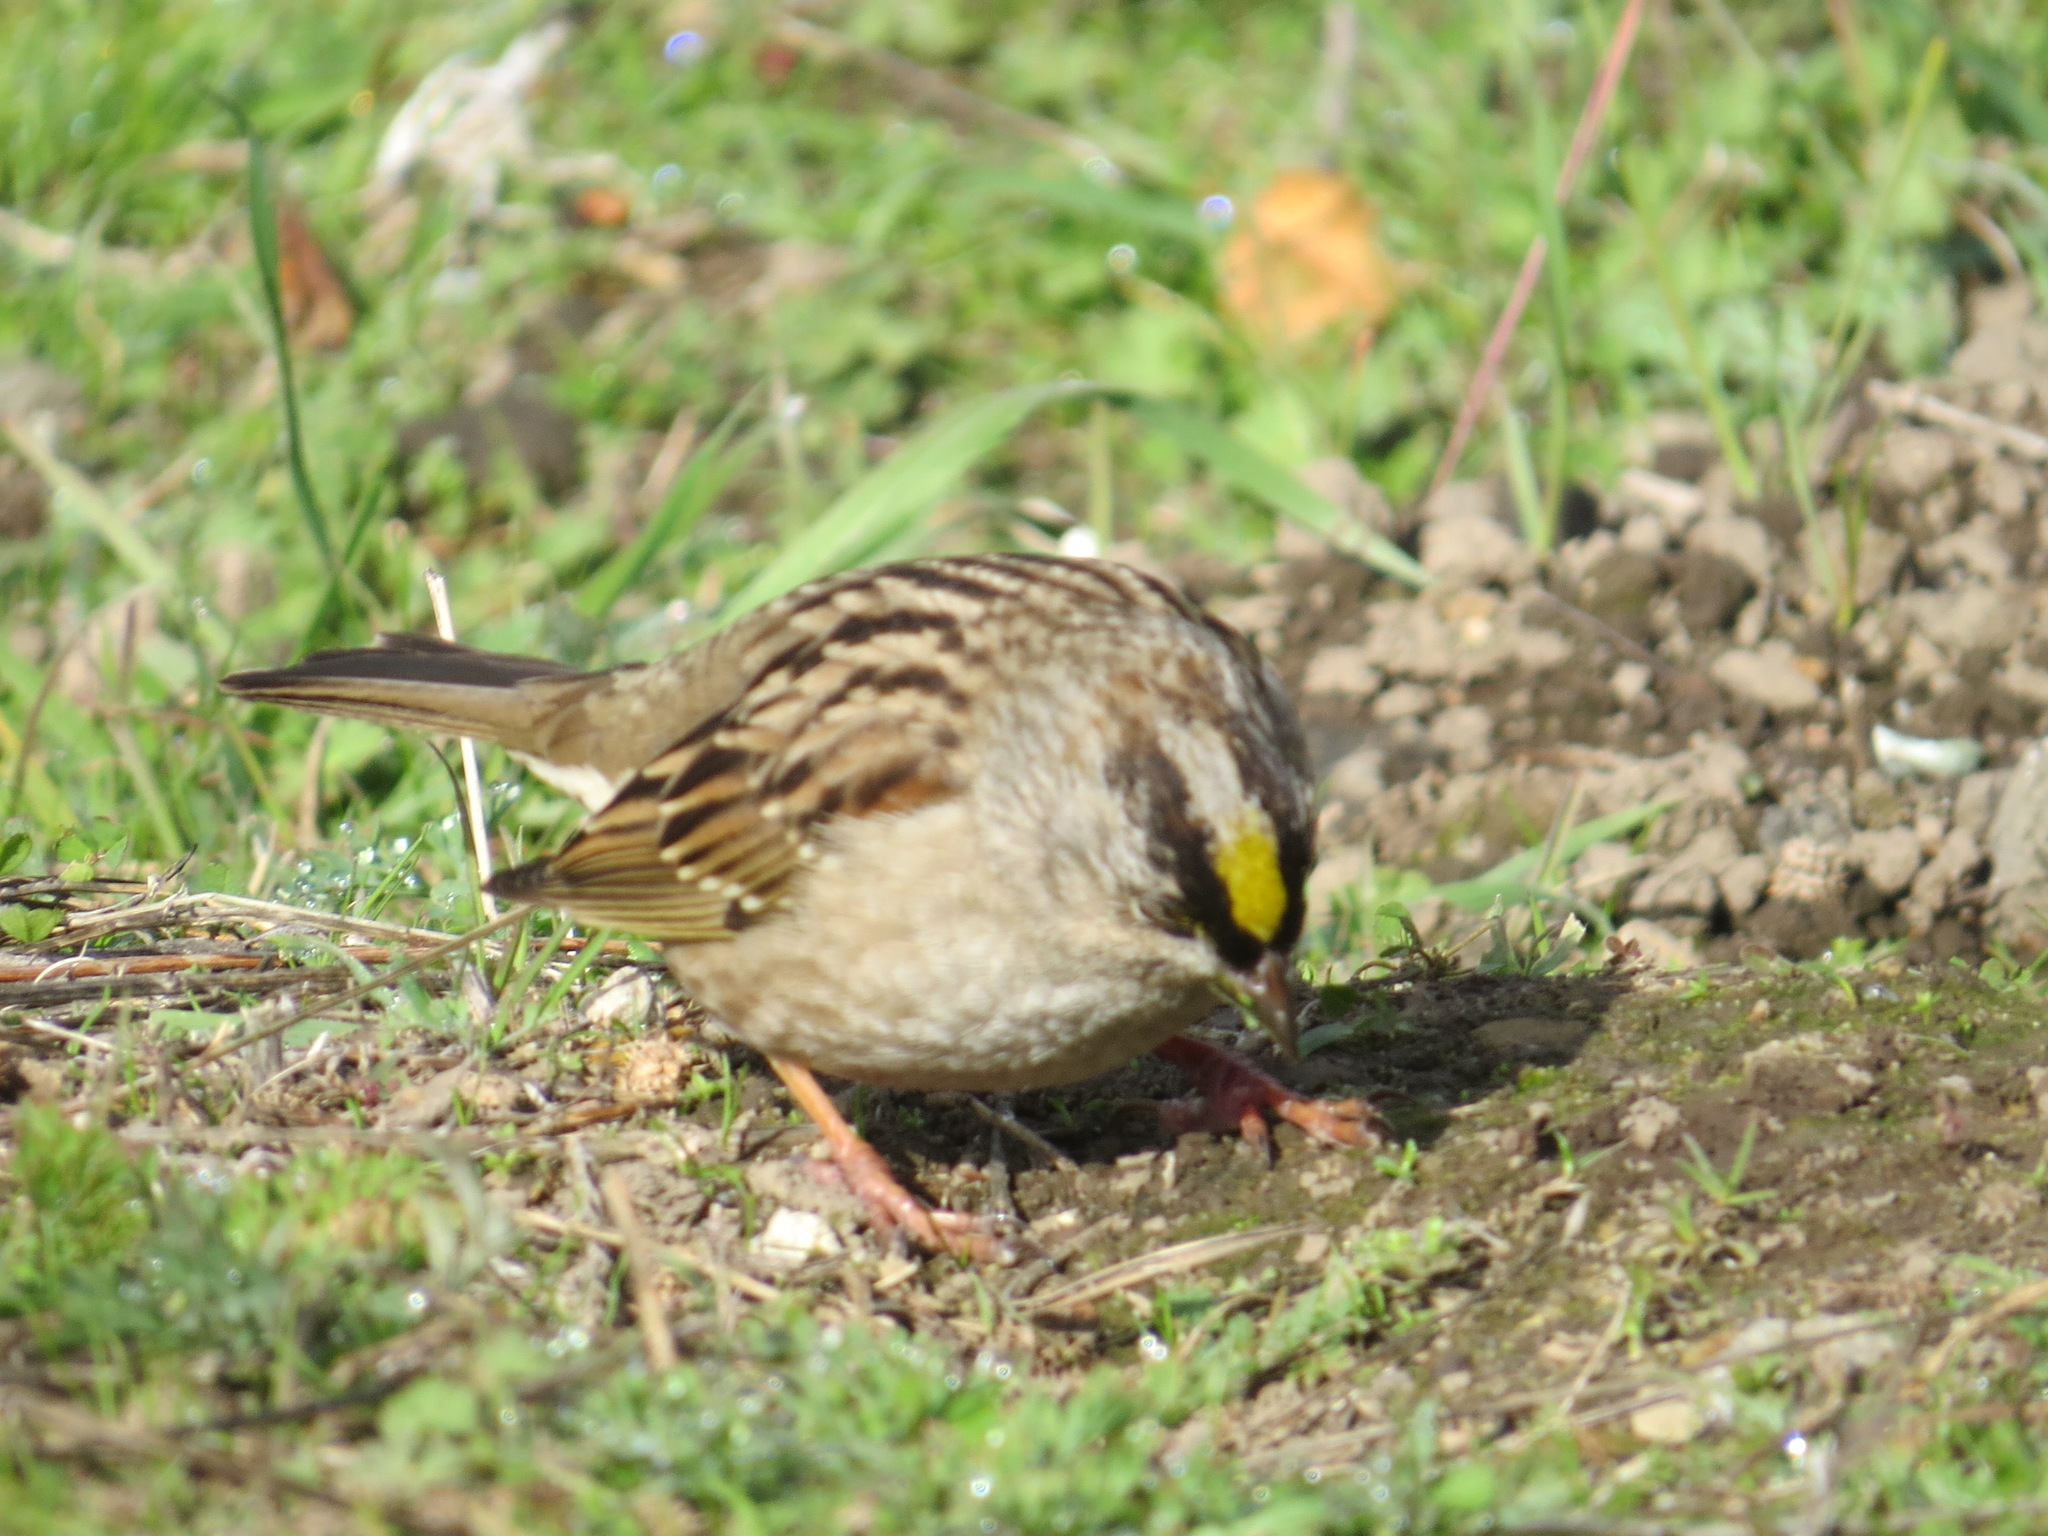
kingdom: Animalia
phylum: Chordata
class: Aves
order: Passeriformes
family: Passerellidae
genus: Zonotrichia
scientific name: Zonotrichia atricapilla
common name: Golden-crowned sparrow
